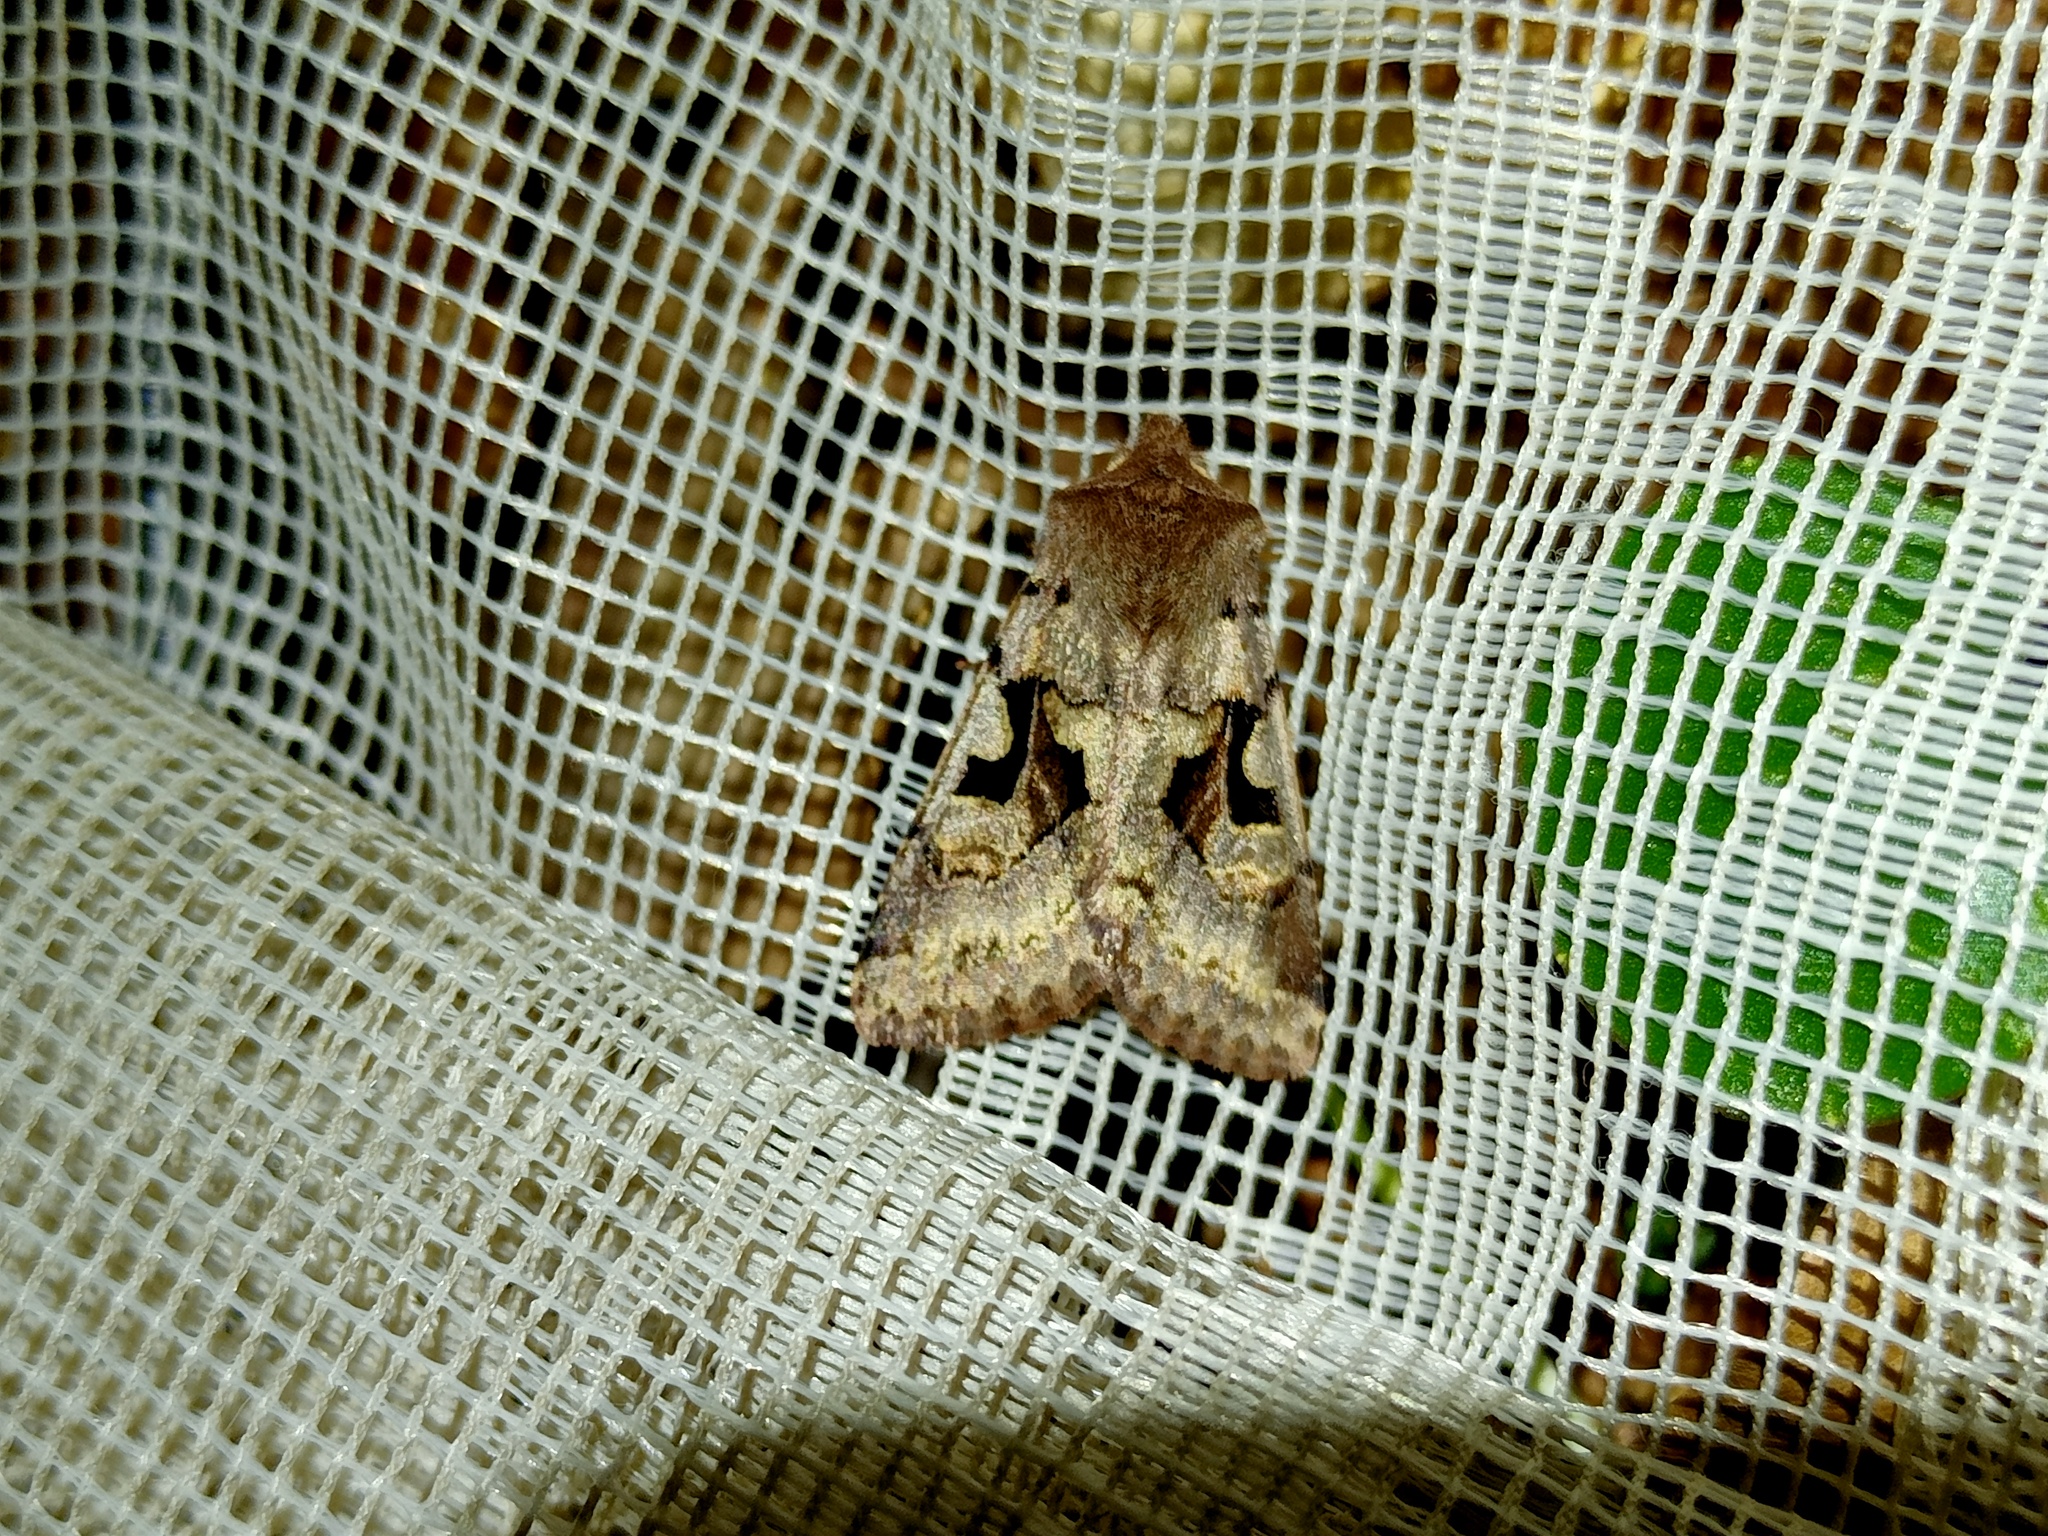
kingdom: Animalia
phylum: Arthropoda
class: Insecta
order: Lepidoptera
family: Noctuidae
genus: Orthosia
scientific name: Orthosia gothica
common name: Hebrew character
